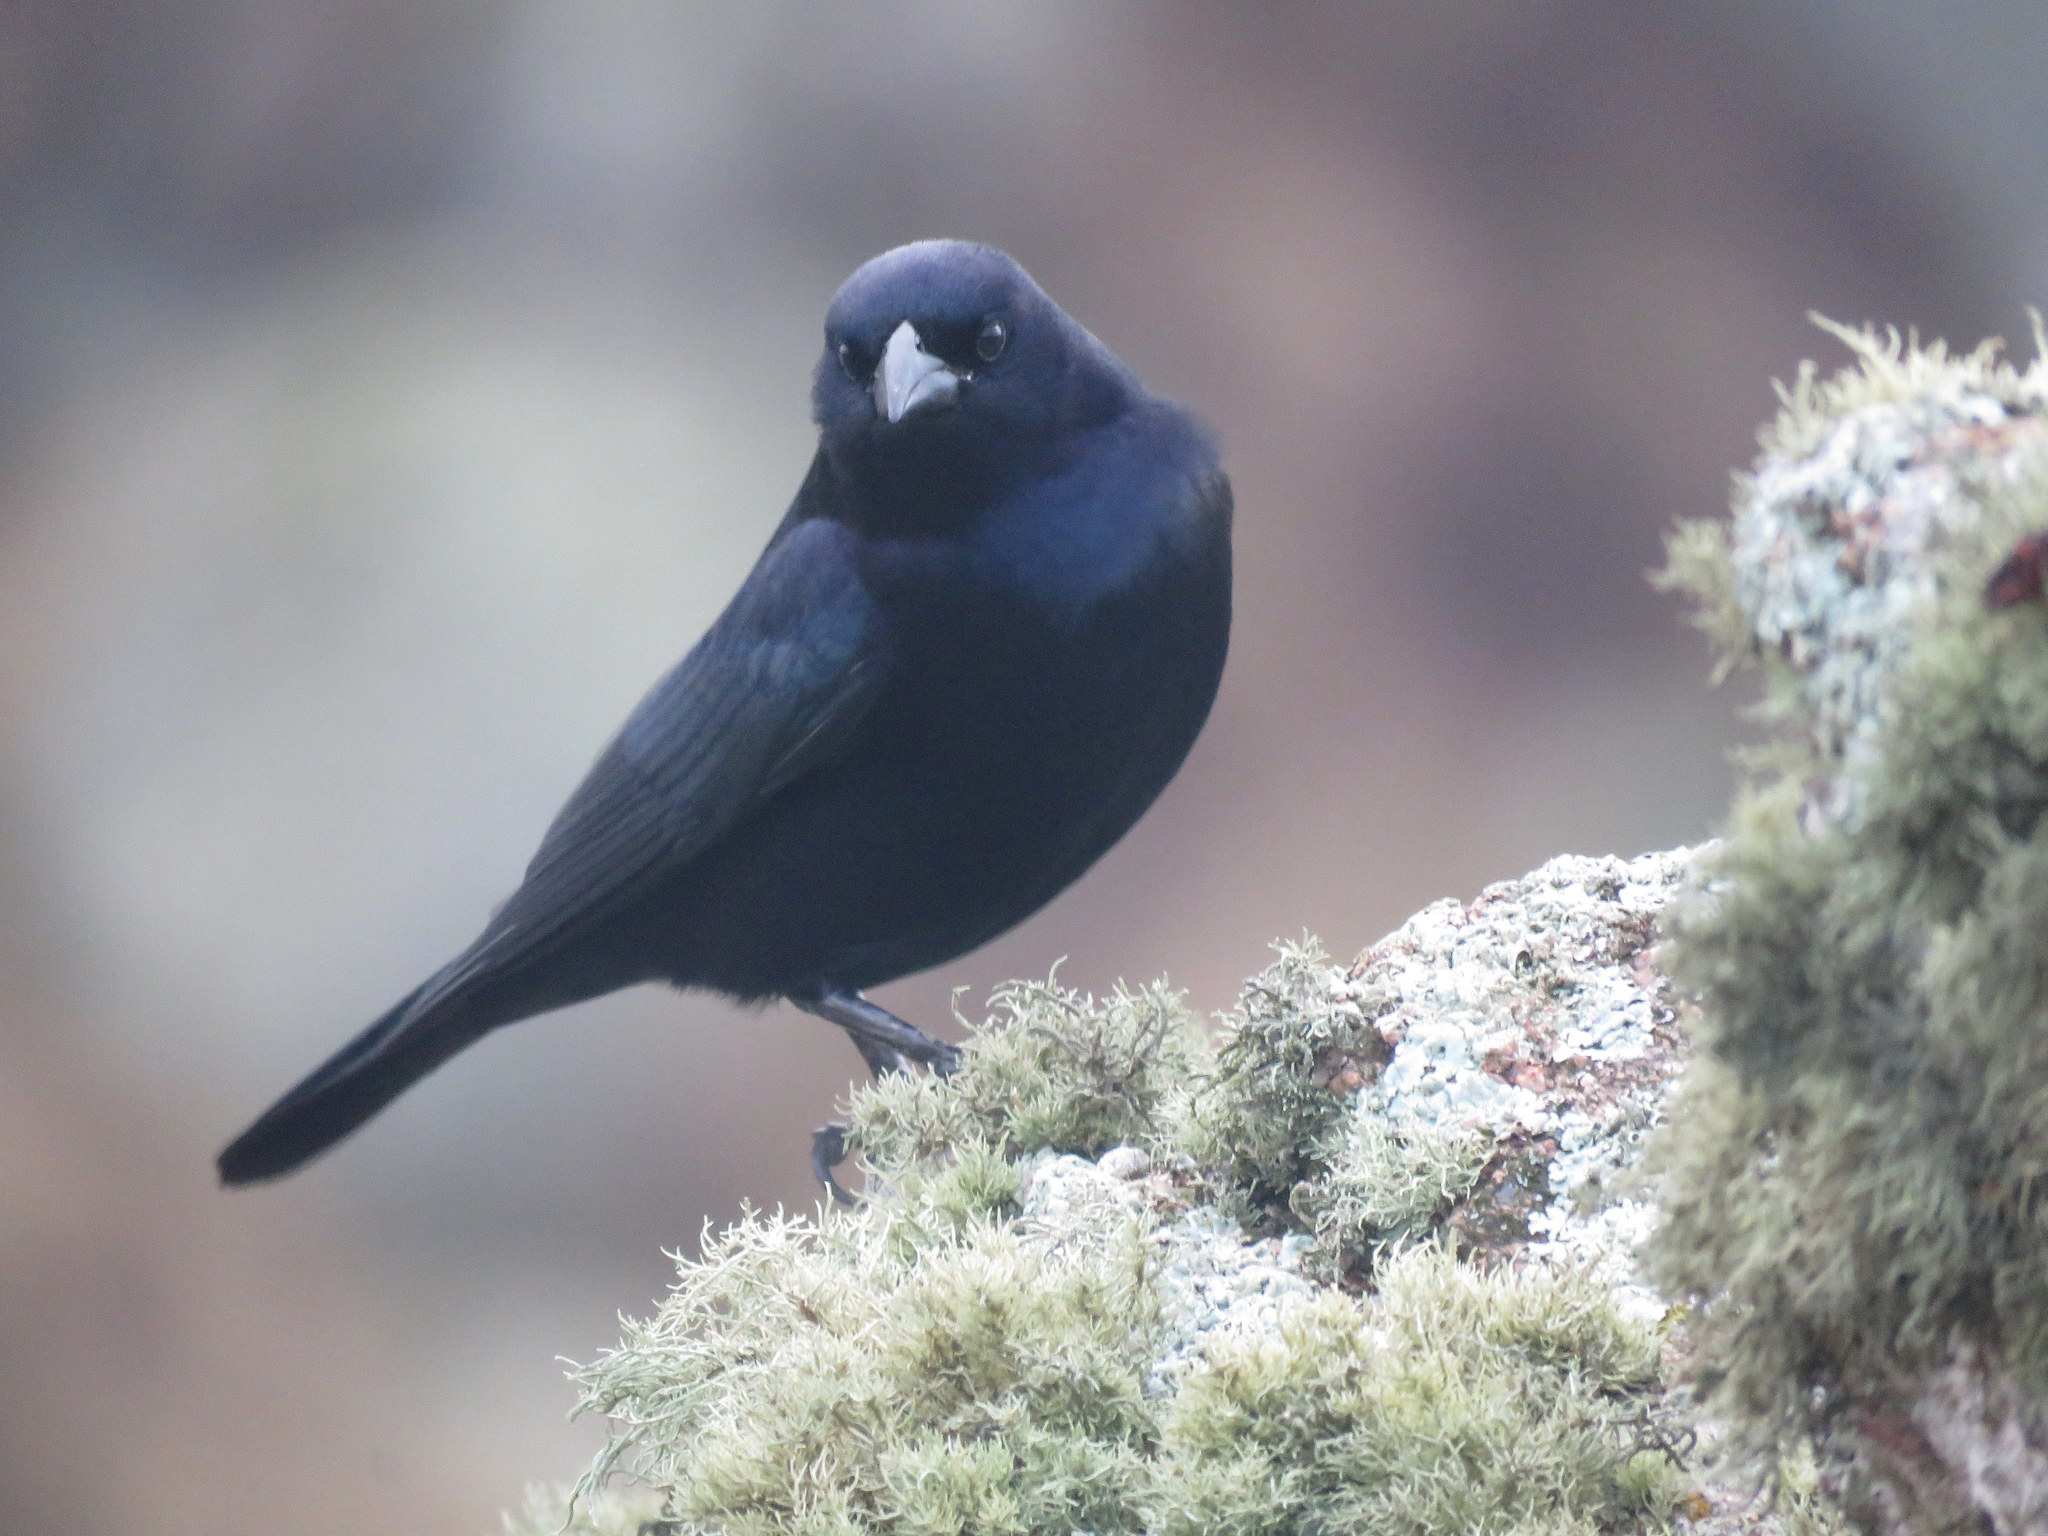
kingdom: Animalia
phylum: Chordata
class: Aves
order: Passeriformes
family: Icteridae
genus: Molothrus
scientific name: Molothrus bonariensis
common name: Shiny cowbird
